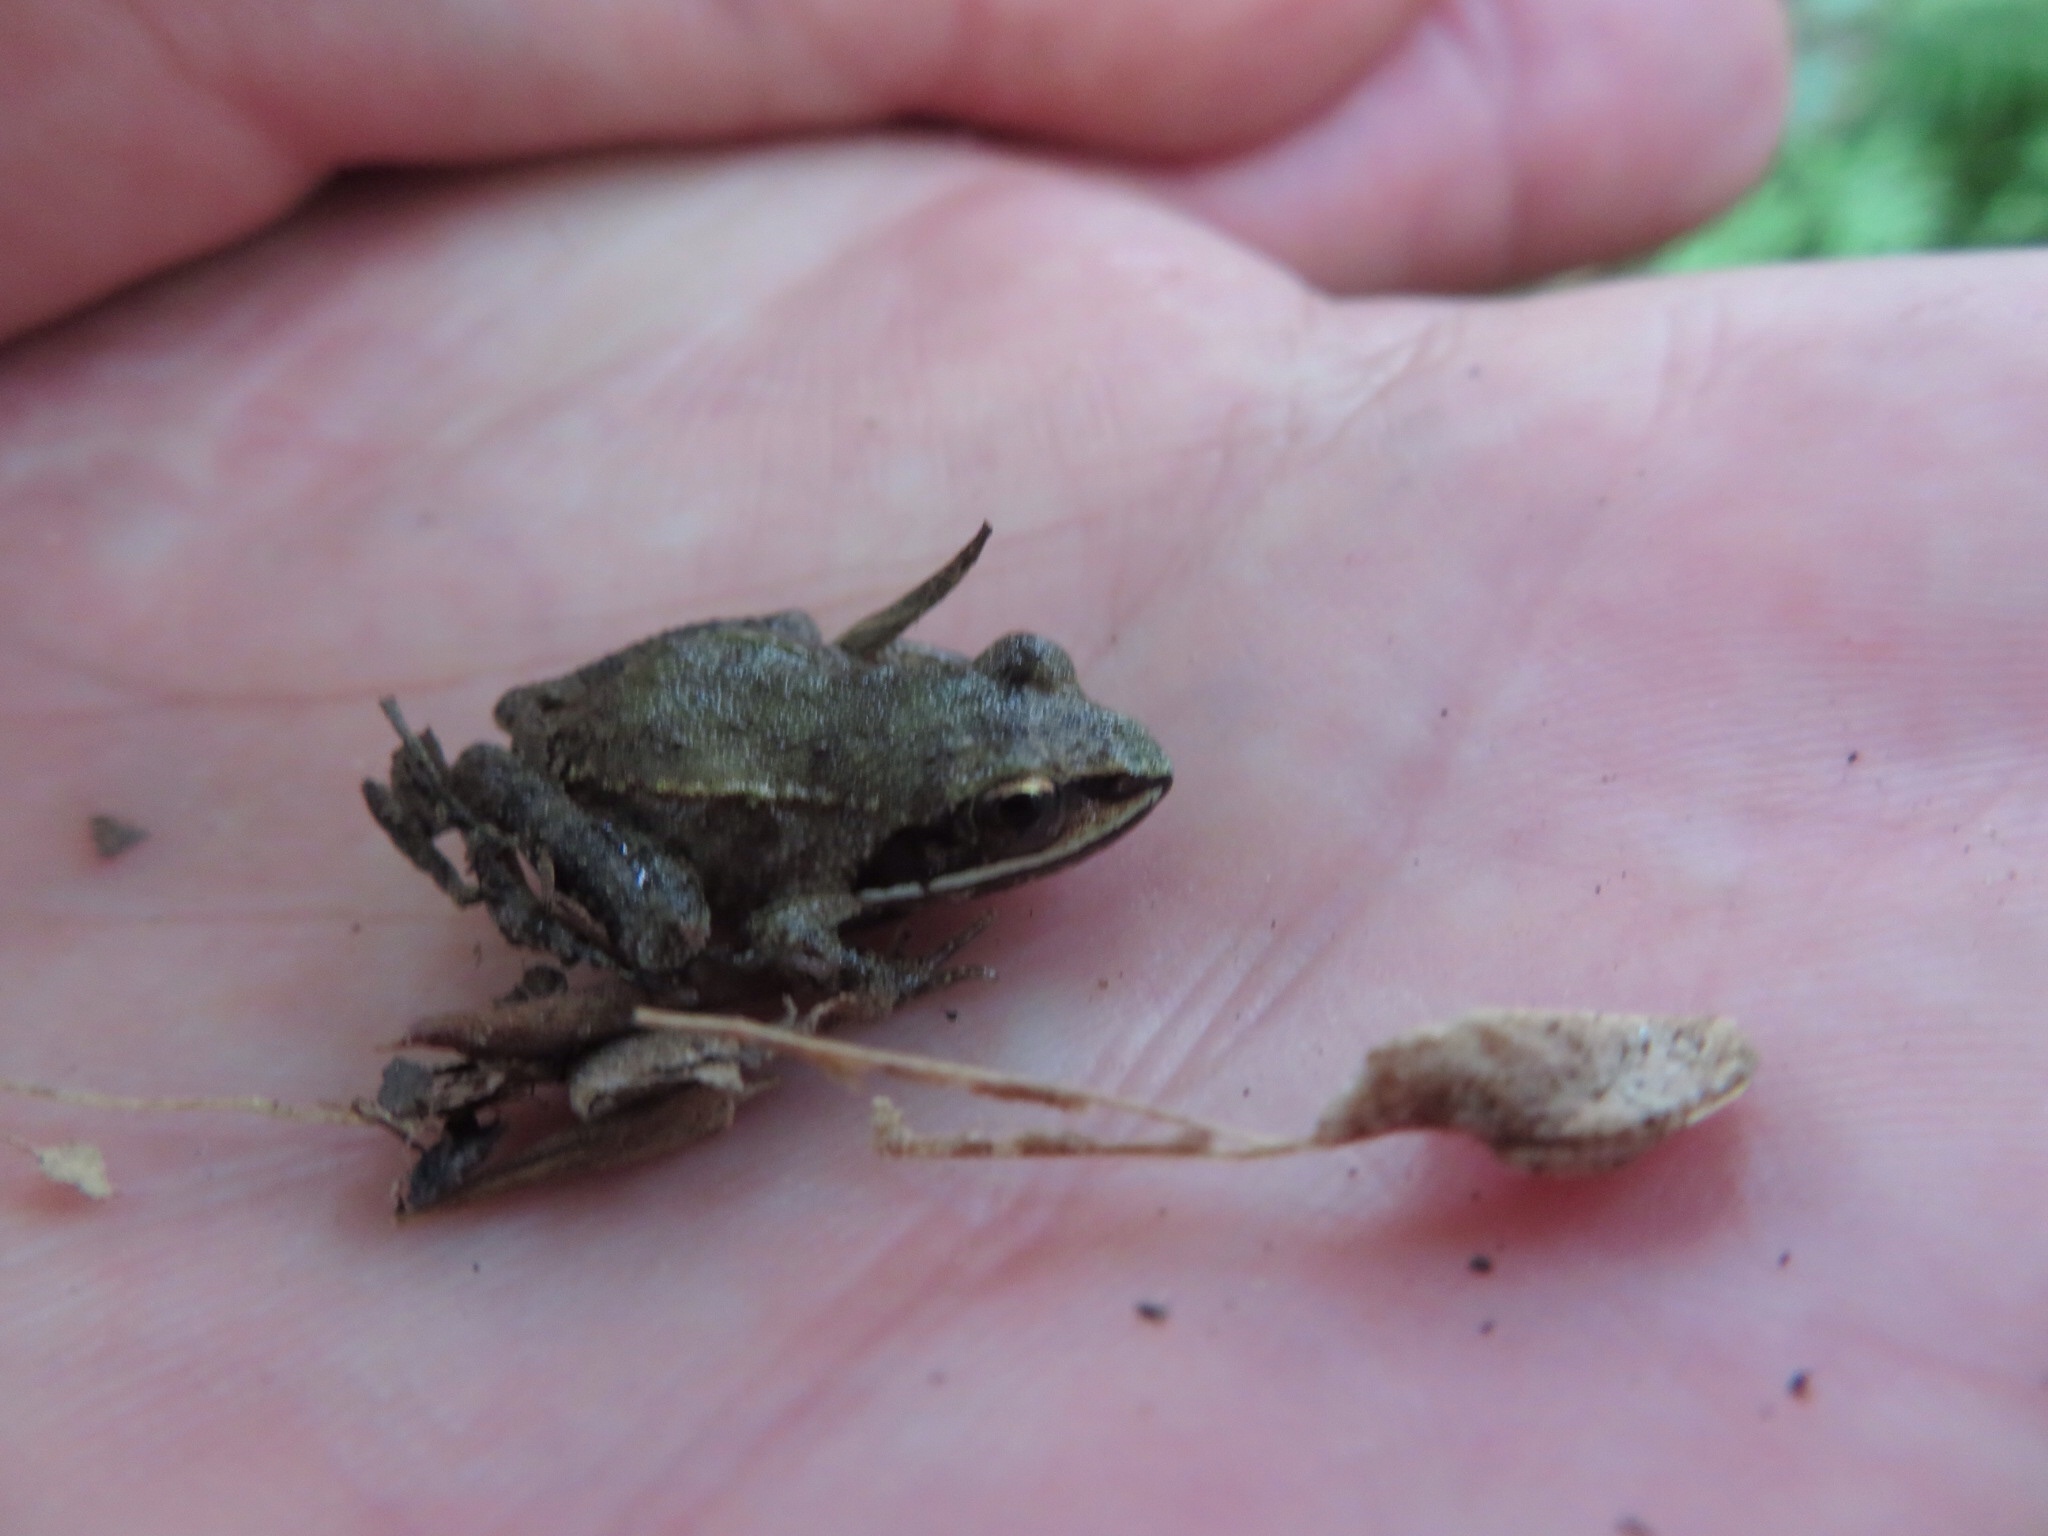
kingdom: Animalia
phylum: Chordata
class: Amphibia
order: Anura
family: Ranidae
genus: Lithobates
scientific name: Lithobates sylvaticus
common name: Wood frog
